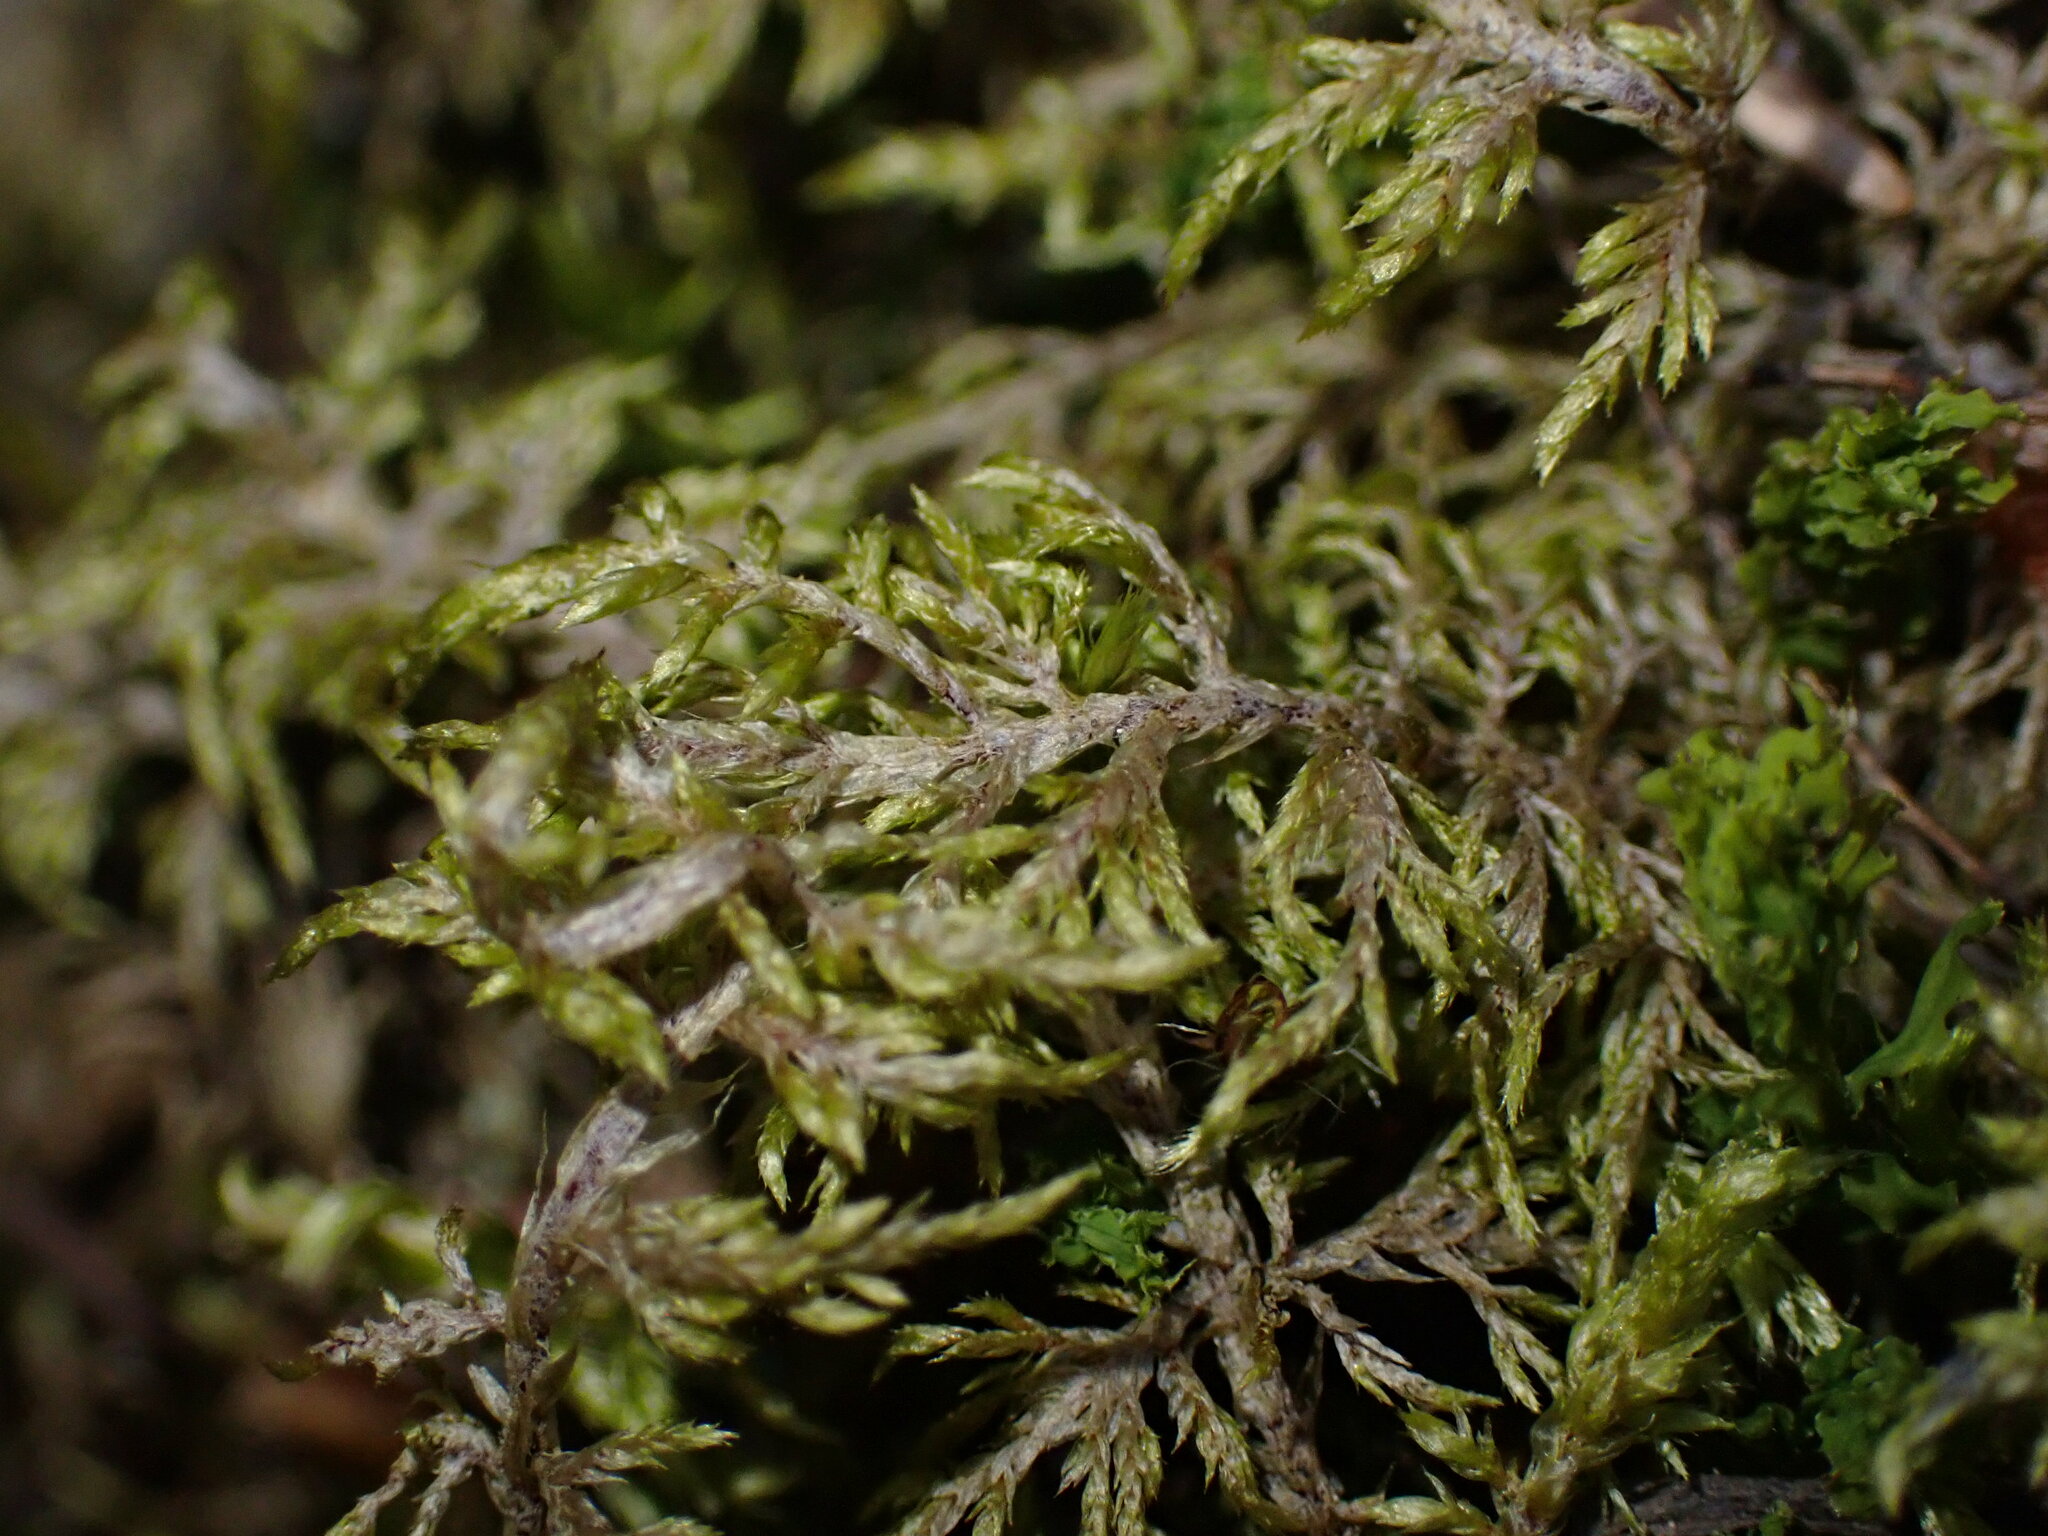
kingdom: Plantae
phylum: Bryophyta
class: Bryopsida
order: Hypnales
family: Hylocomiaceae
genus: Hylocomium
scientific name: Hylocomium splendens
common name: Stairstep moss
